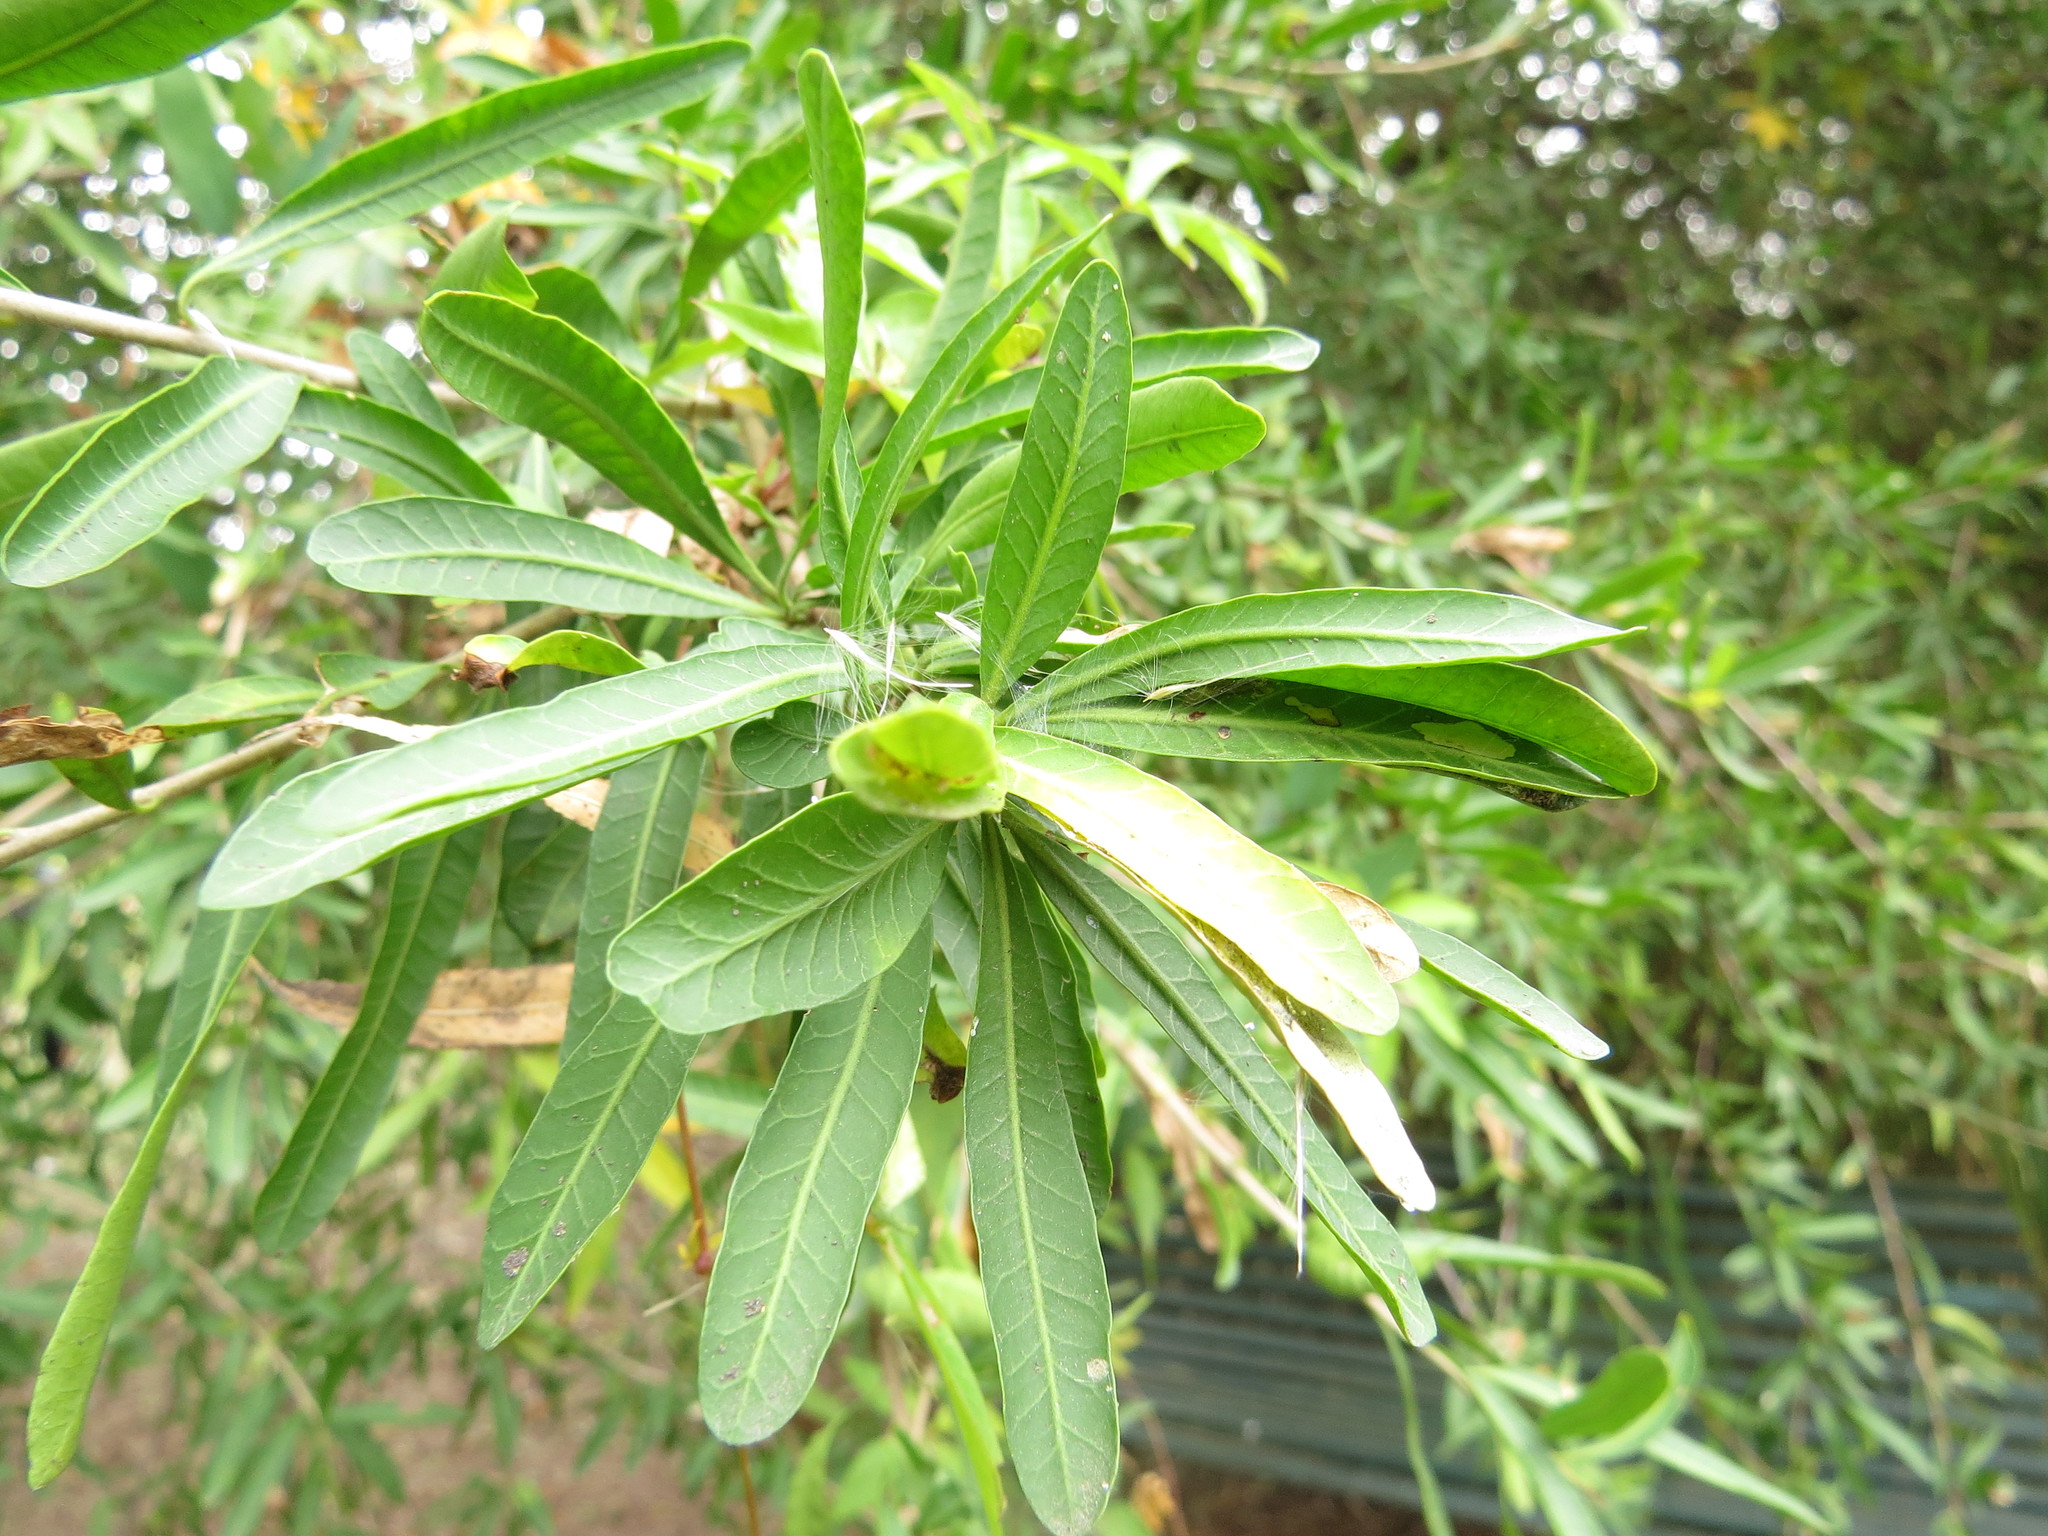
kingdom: Plantae
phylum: Tracheophyta
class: Magnoliopsida
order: Sapindales
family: Anacardiaceae
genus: Schinus
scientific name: Schinus longifolia
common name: Longleaf peppertree
